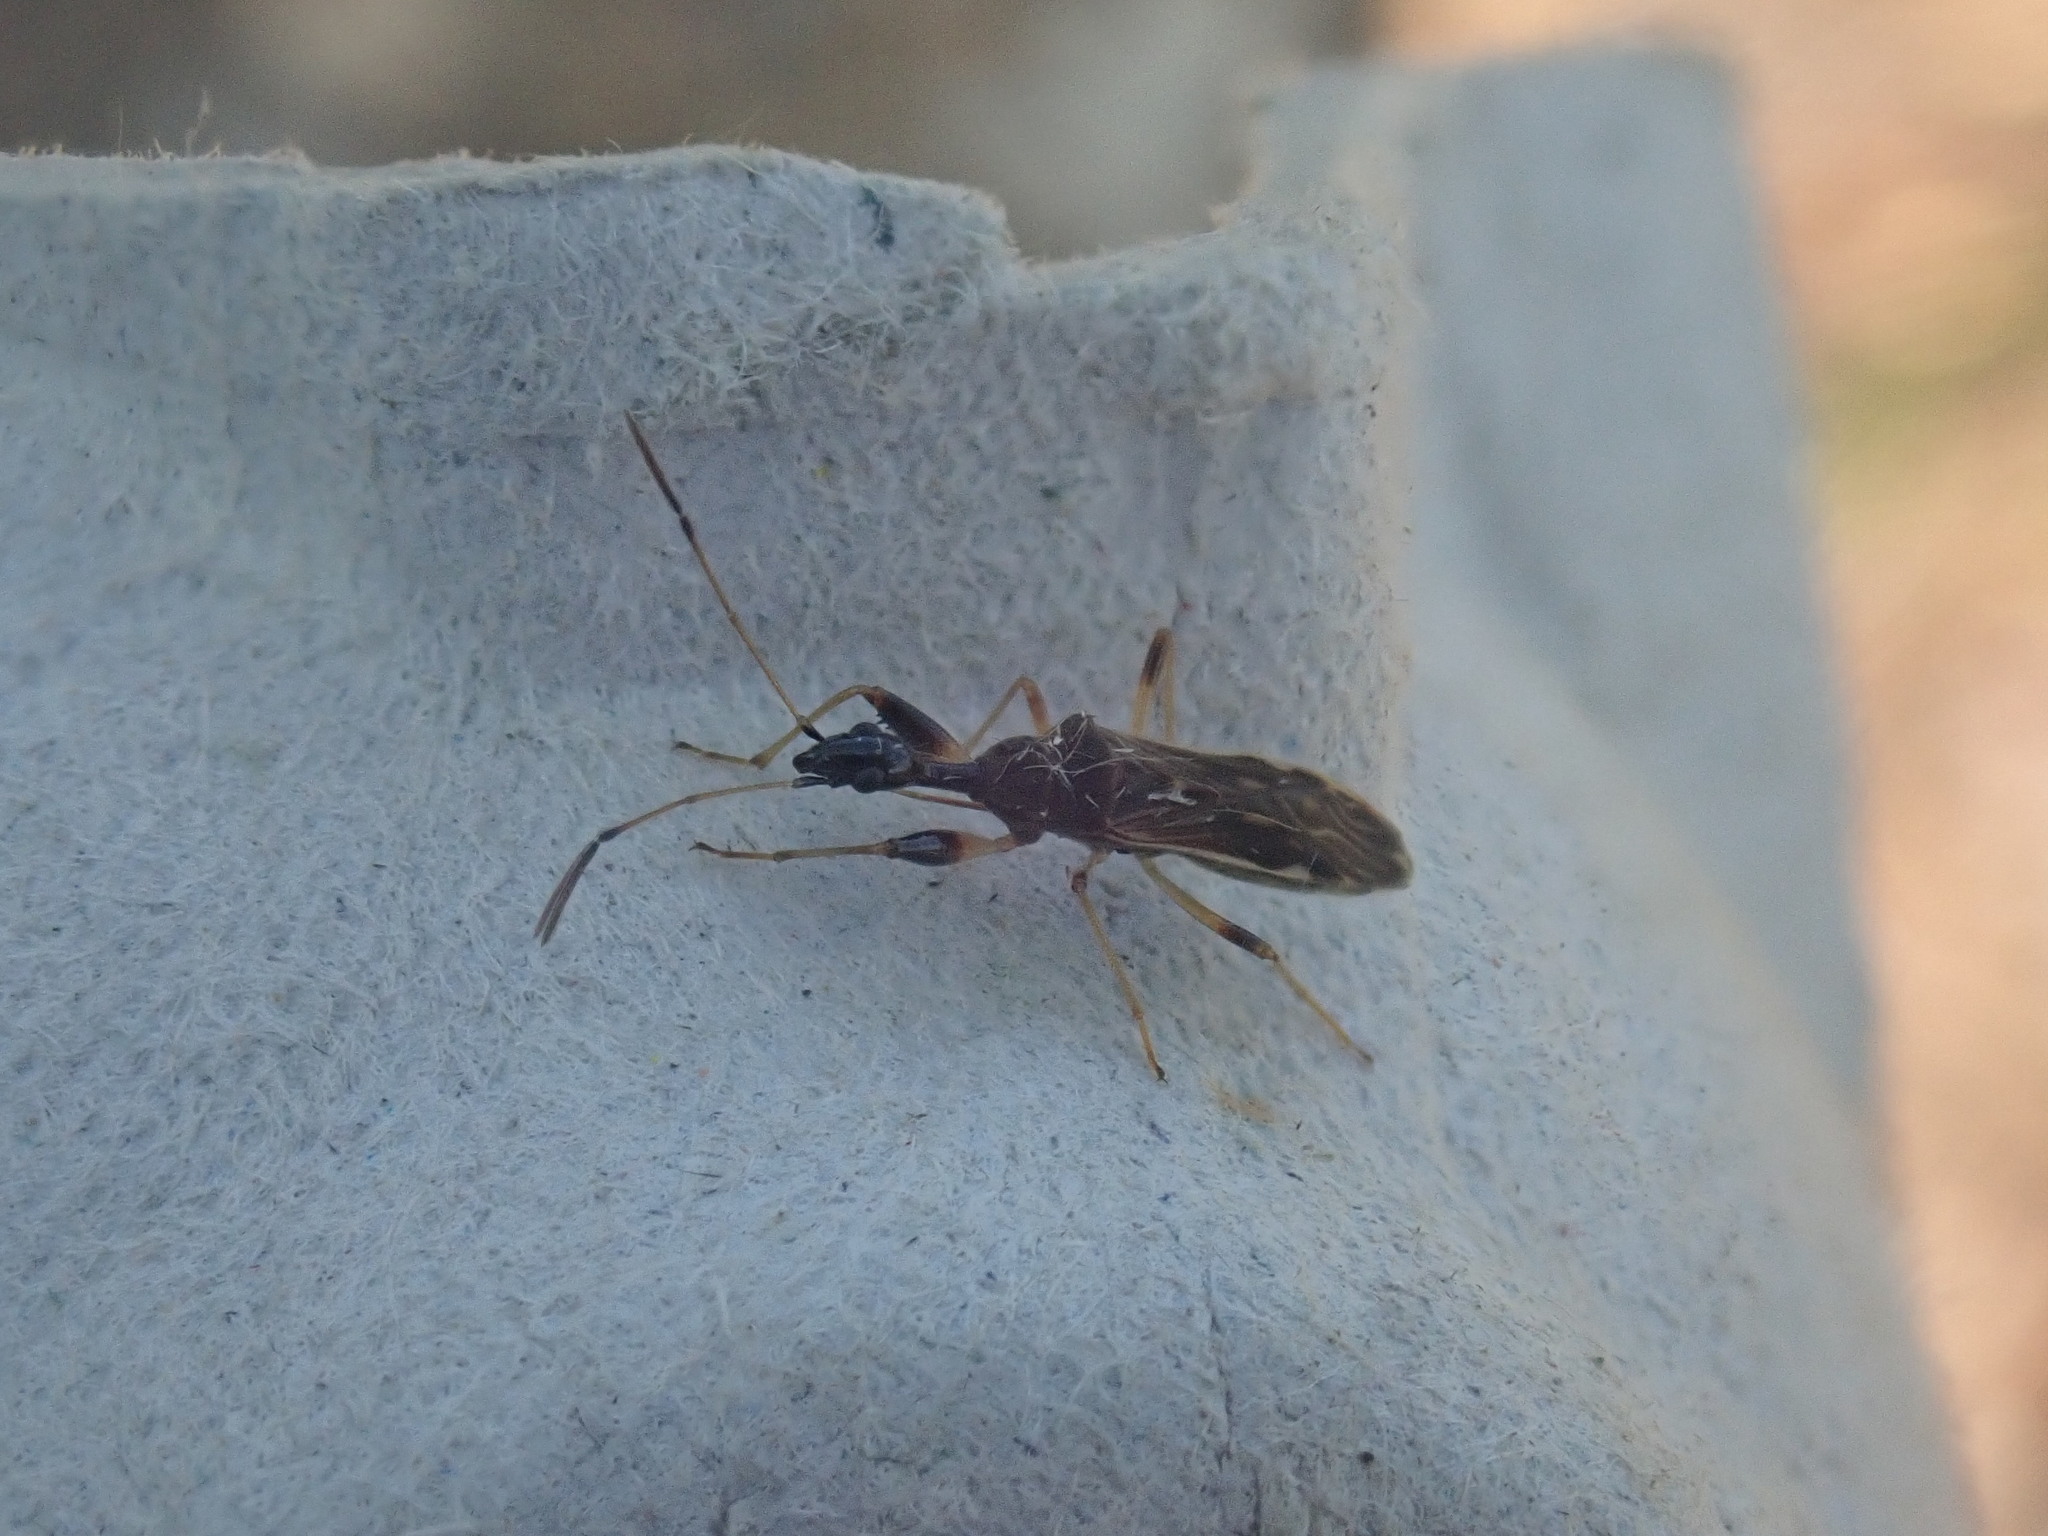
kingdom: Animalia
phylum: Arthropoda
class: Insecta
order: Hemiptera
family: Rhyparochromidae
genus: Myodocha
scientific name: Myodocha serripes
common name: Long-necked seed bug
